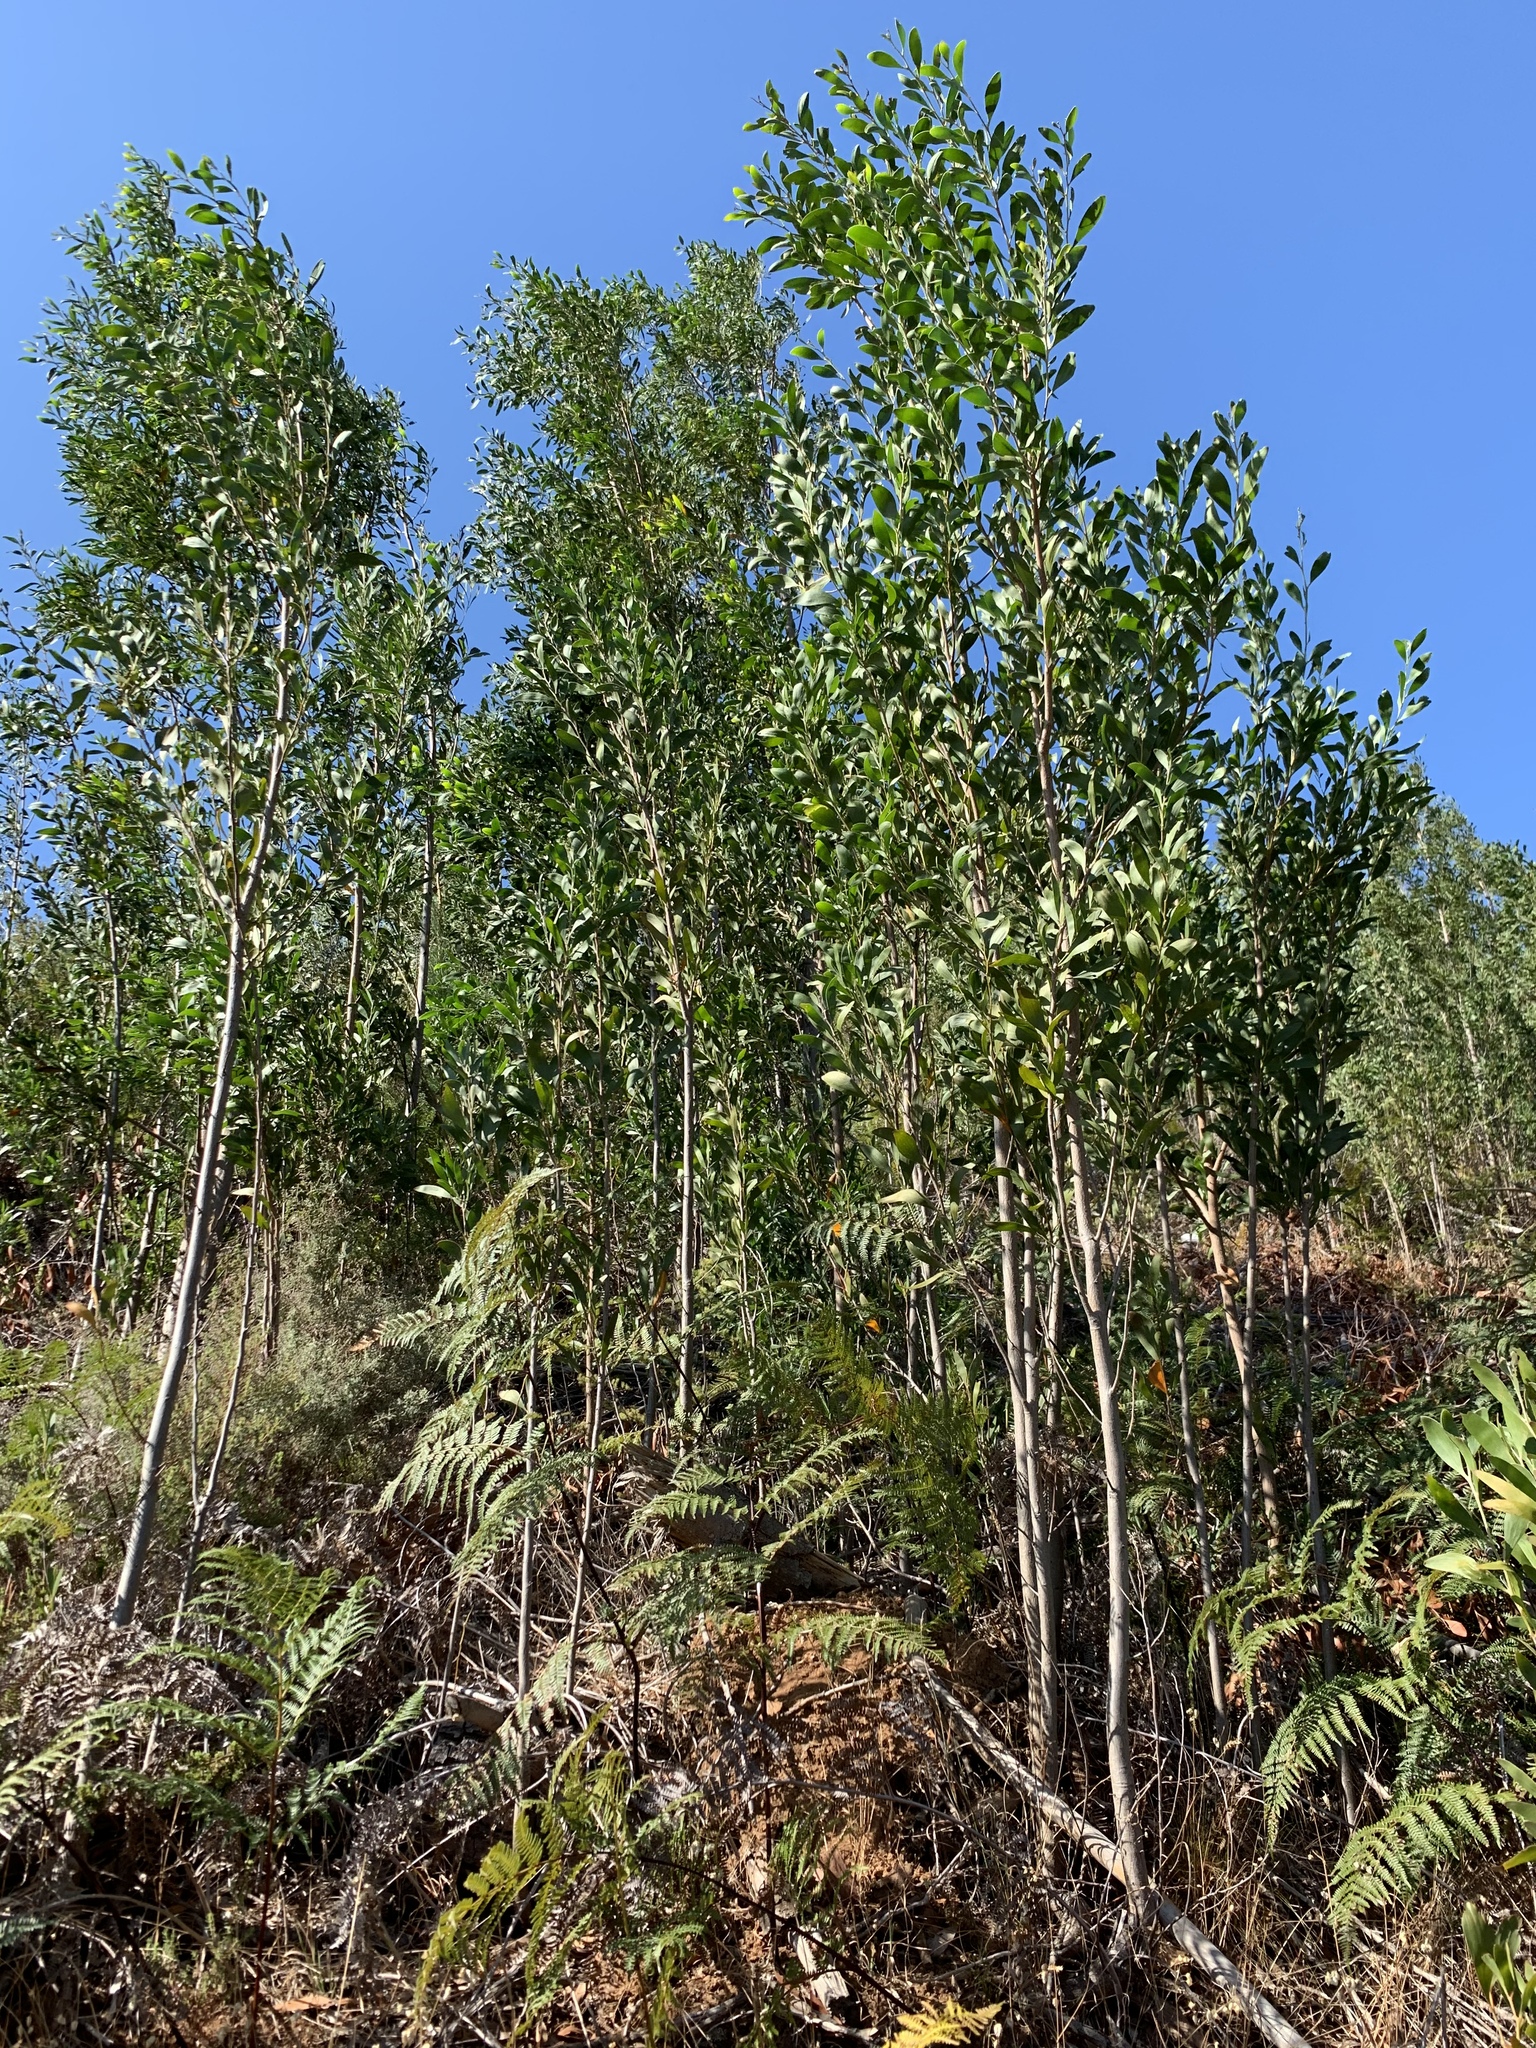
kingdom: Plantae
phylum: Tracheophyta
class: Magnoliopsida
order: Fabales
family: Fabaceae
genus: Acacia
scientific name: Acacia melanoxylon
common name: Blackwood
